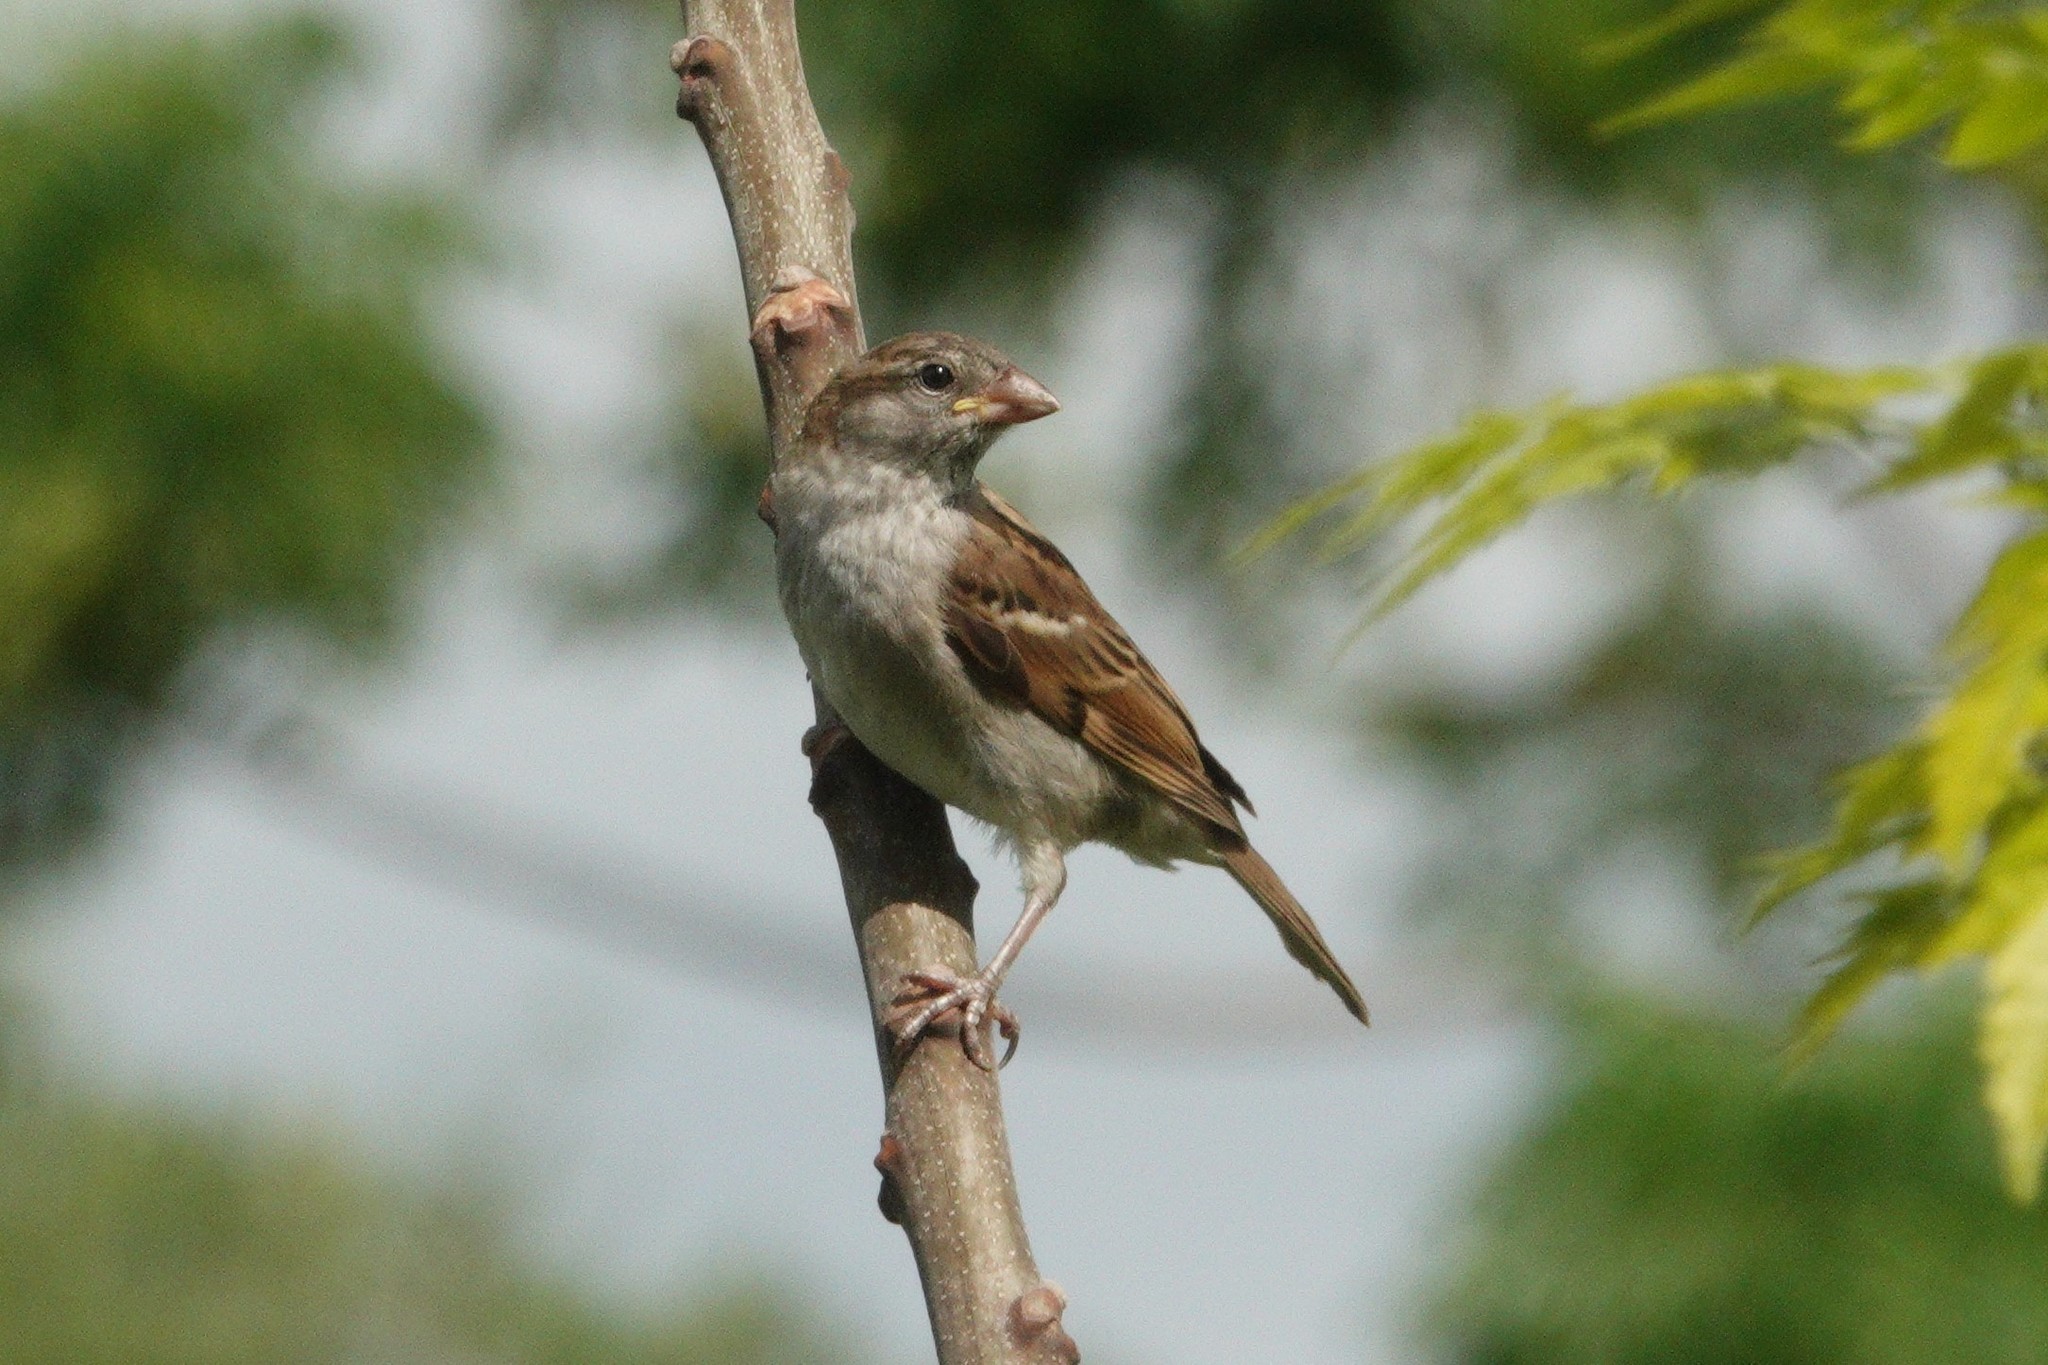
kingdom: Animalia
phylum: Chordata
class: Aves
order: Passeriformes
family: Passeridae
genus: Passer
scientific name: Passer domesticus
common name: House sparrow
